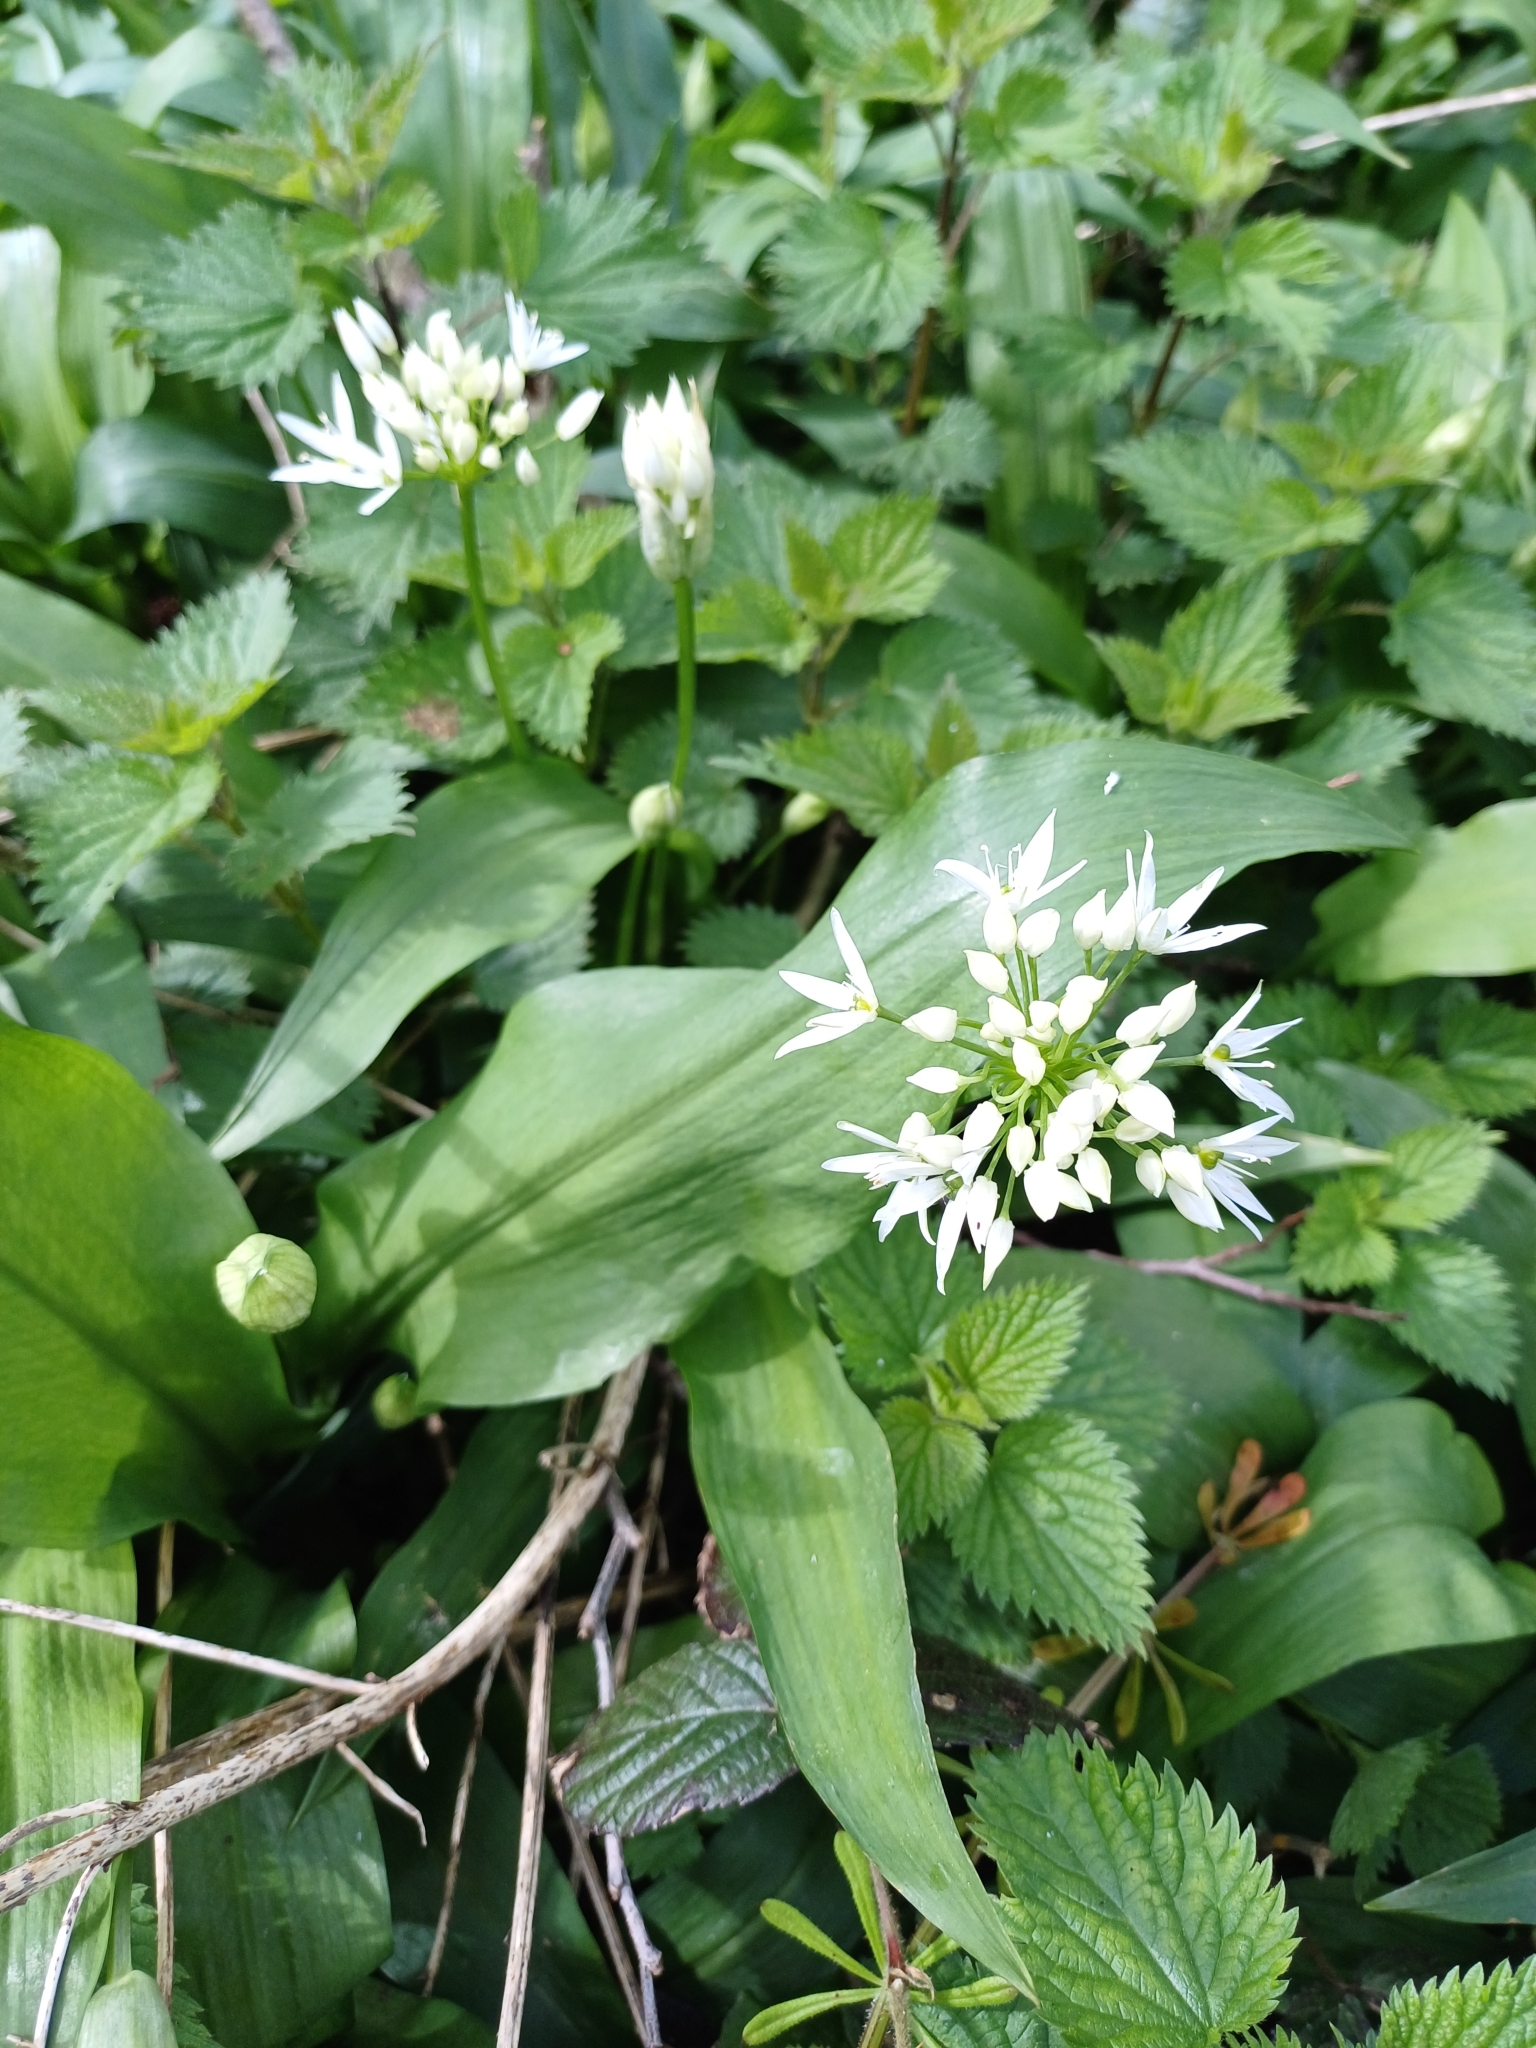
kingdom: Plantae
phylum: Tracheophyta
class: Liliopsida
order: Asparagales
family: Amaryllidaceae
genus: Allium
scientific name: Allium ursinum
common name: Ramsons
